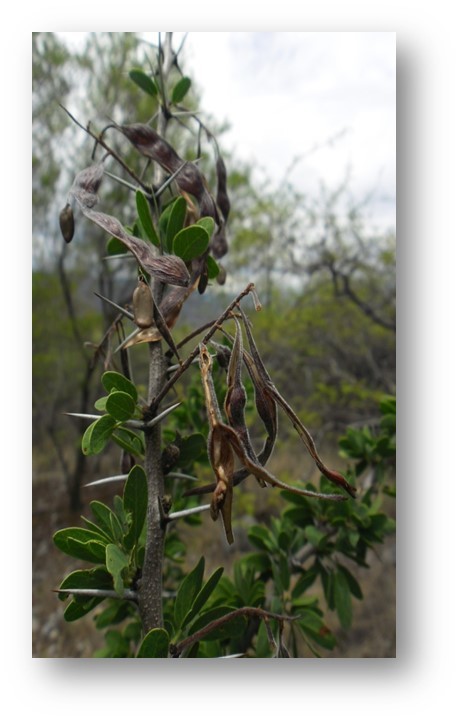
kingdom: Plantae
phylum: Tracheophyta
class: Magnoliopsida
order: Fabales
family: Fabaceae
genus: Vachellia
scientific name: Vachellia bilimekii
